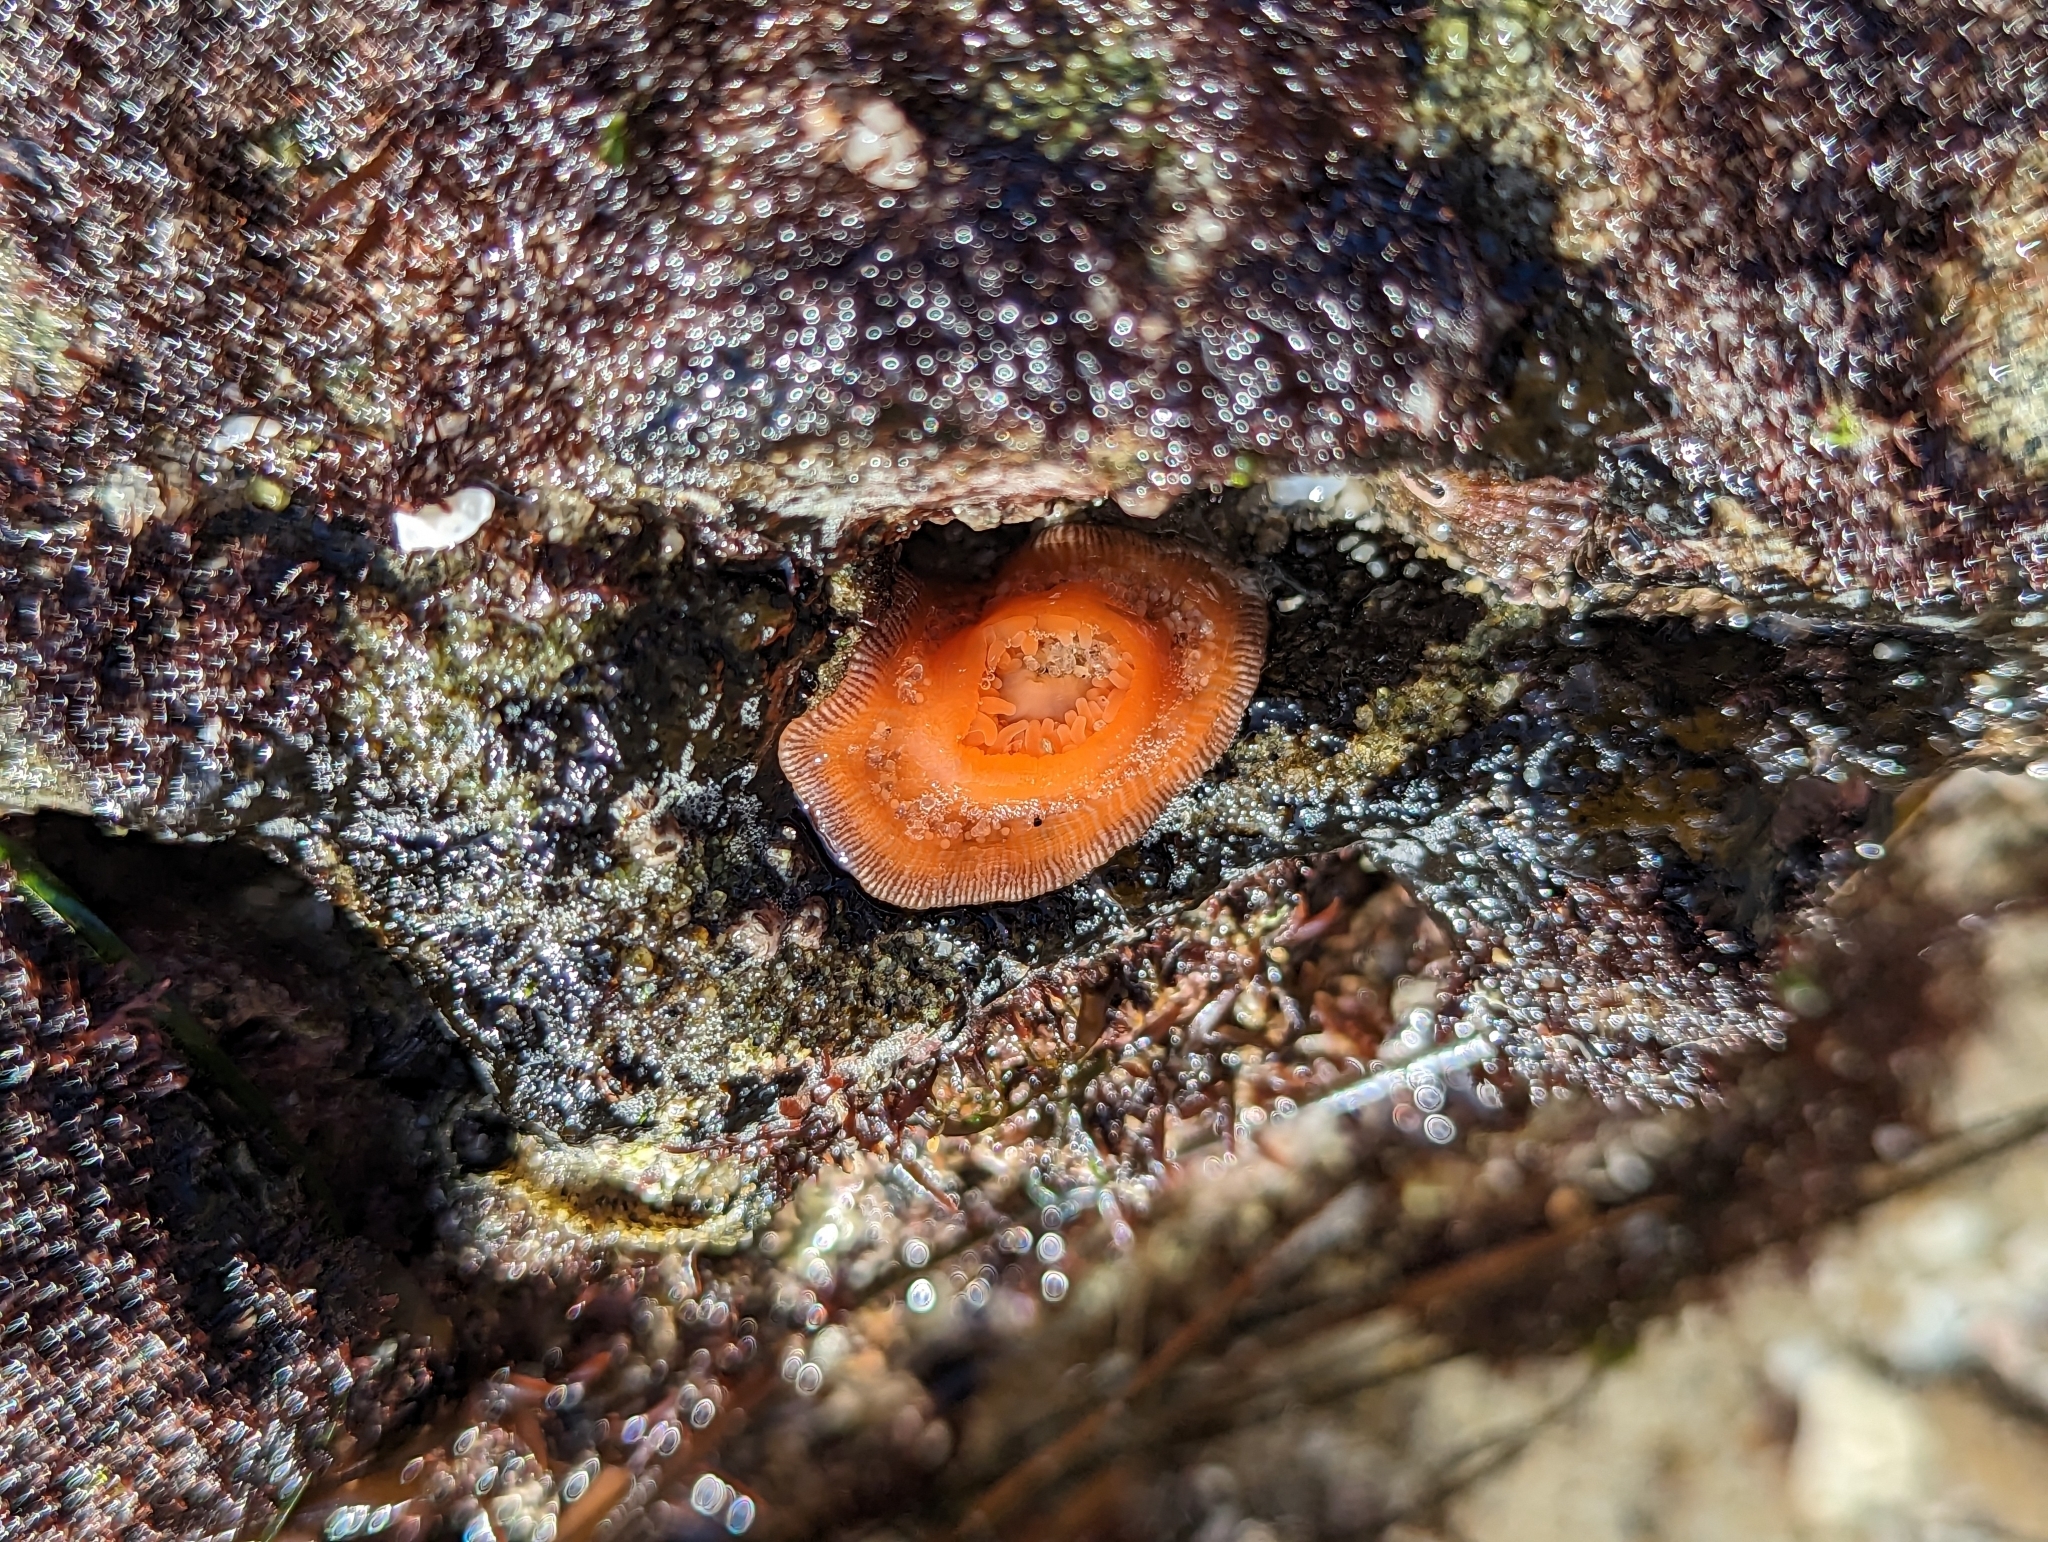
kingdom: Animalia
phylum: Cnidaria
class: Anthozoa
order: Actiniaria
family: Actiniidae
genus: Epiactis
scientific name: Epiactis prolifera
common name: Brooding anemone
